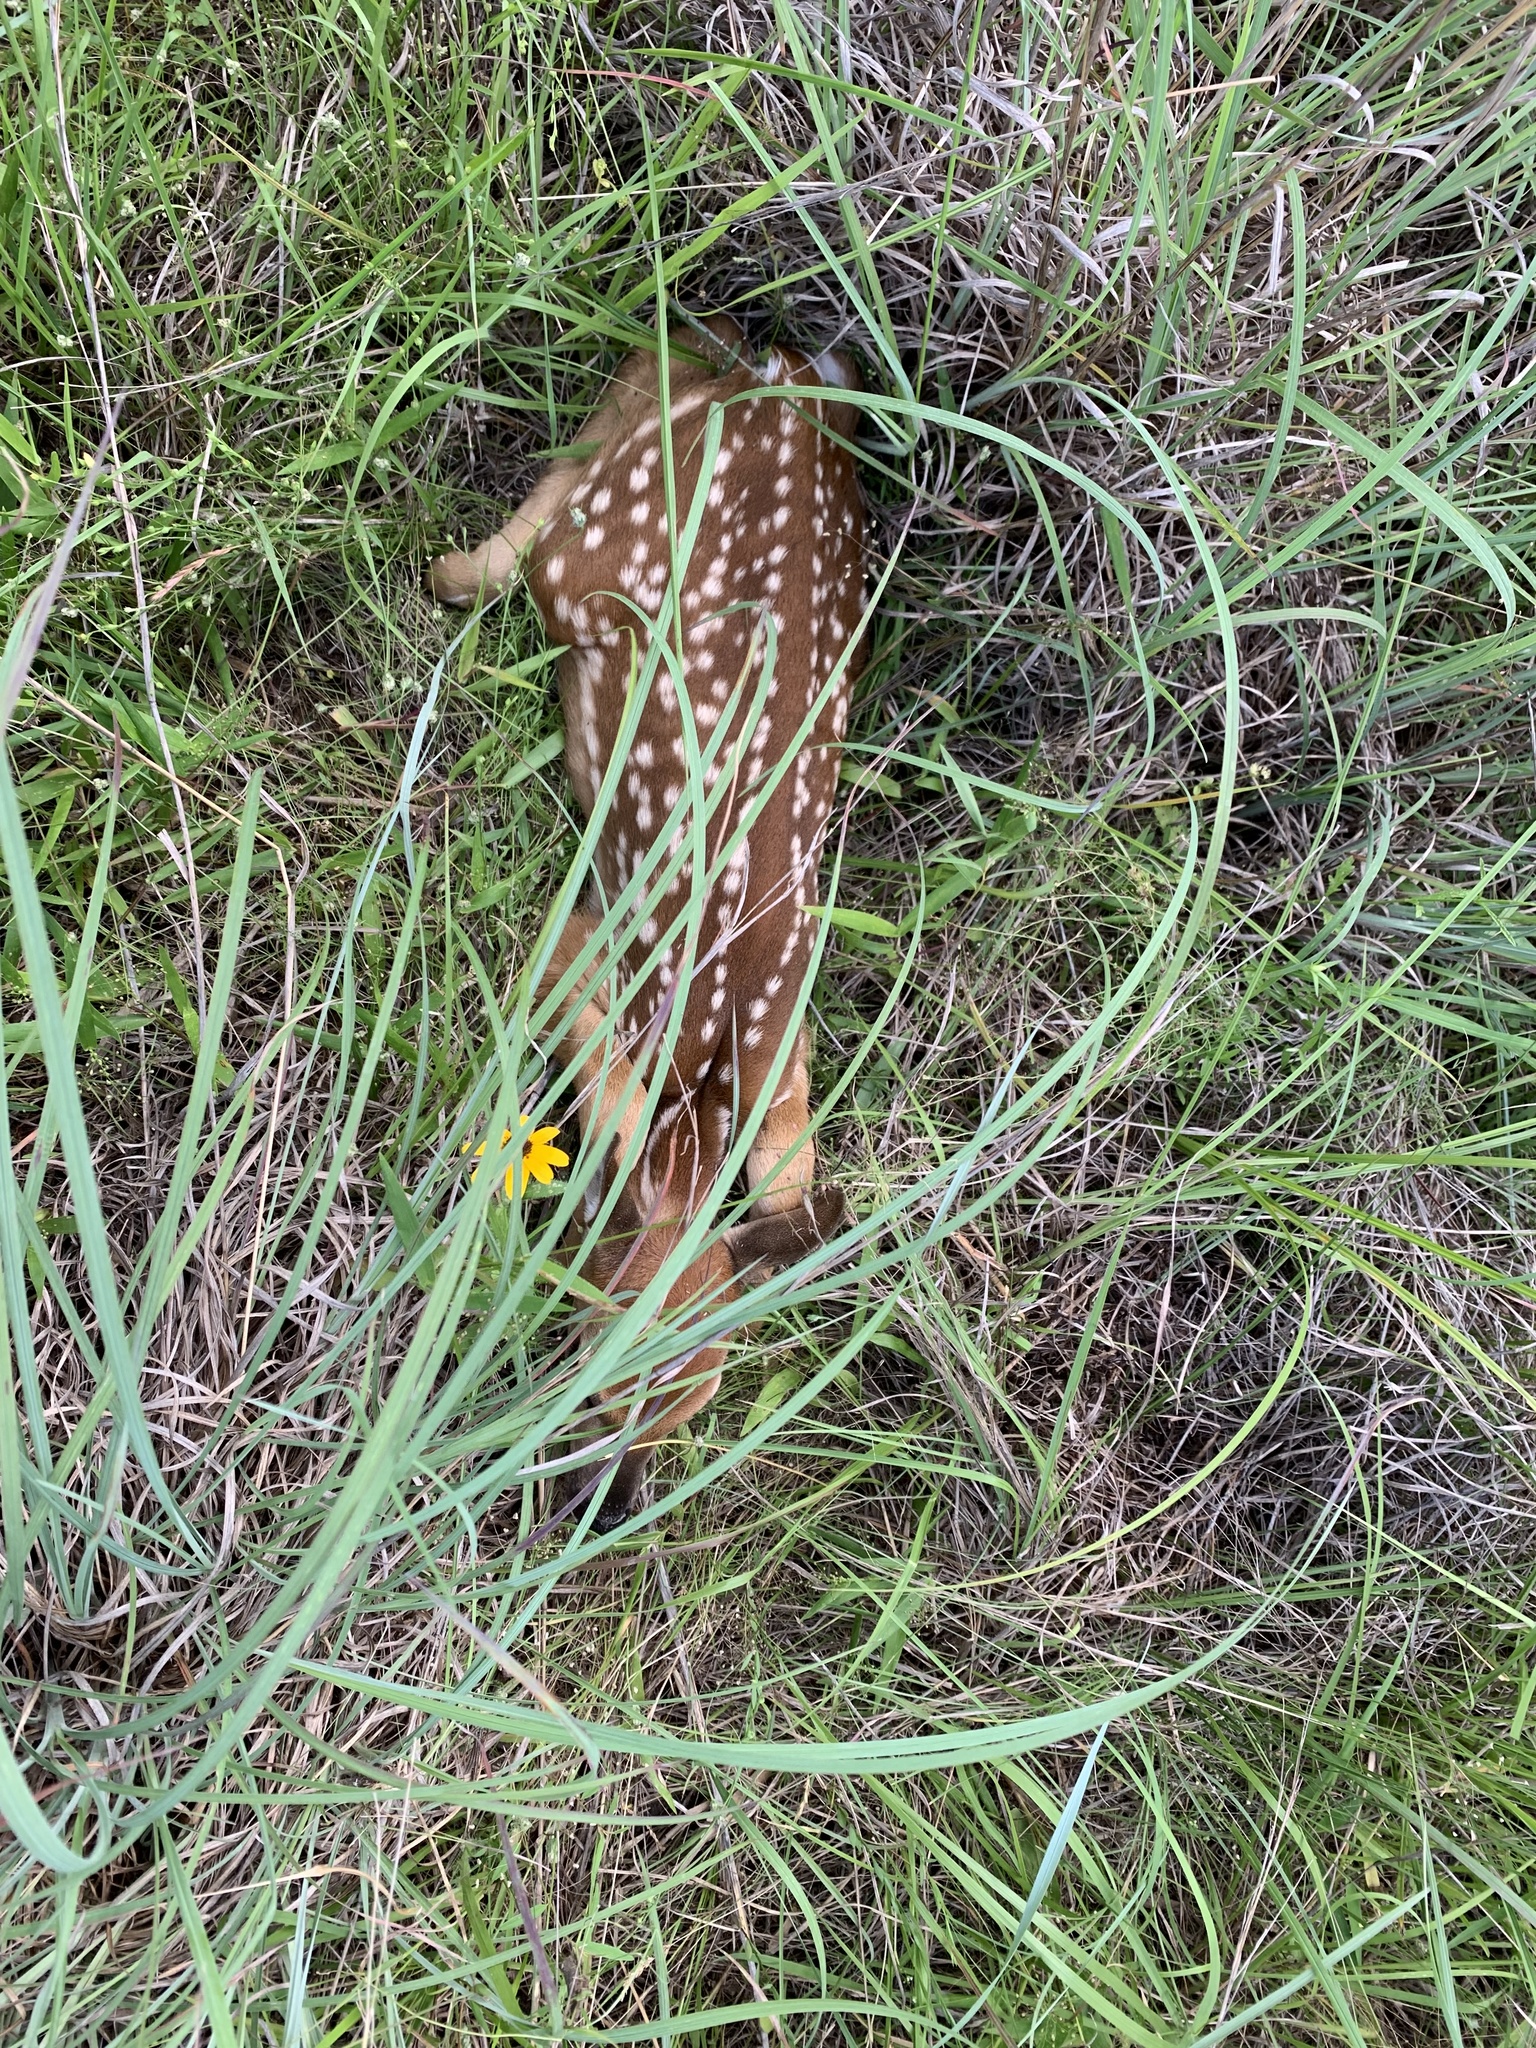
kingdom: Animalia
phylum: Chordata
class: Mammalia
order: Artiodactyla
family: Cervidae
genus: Odocoileus
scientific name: Odocoileus virginianus
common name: White-tailed deer
